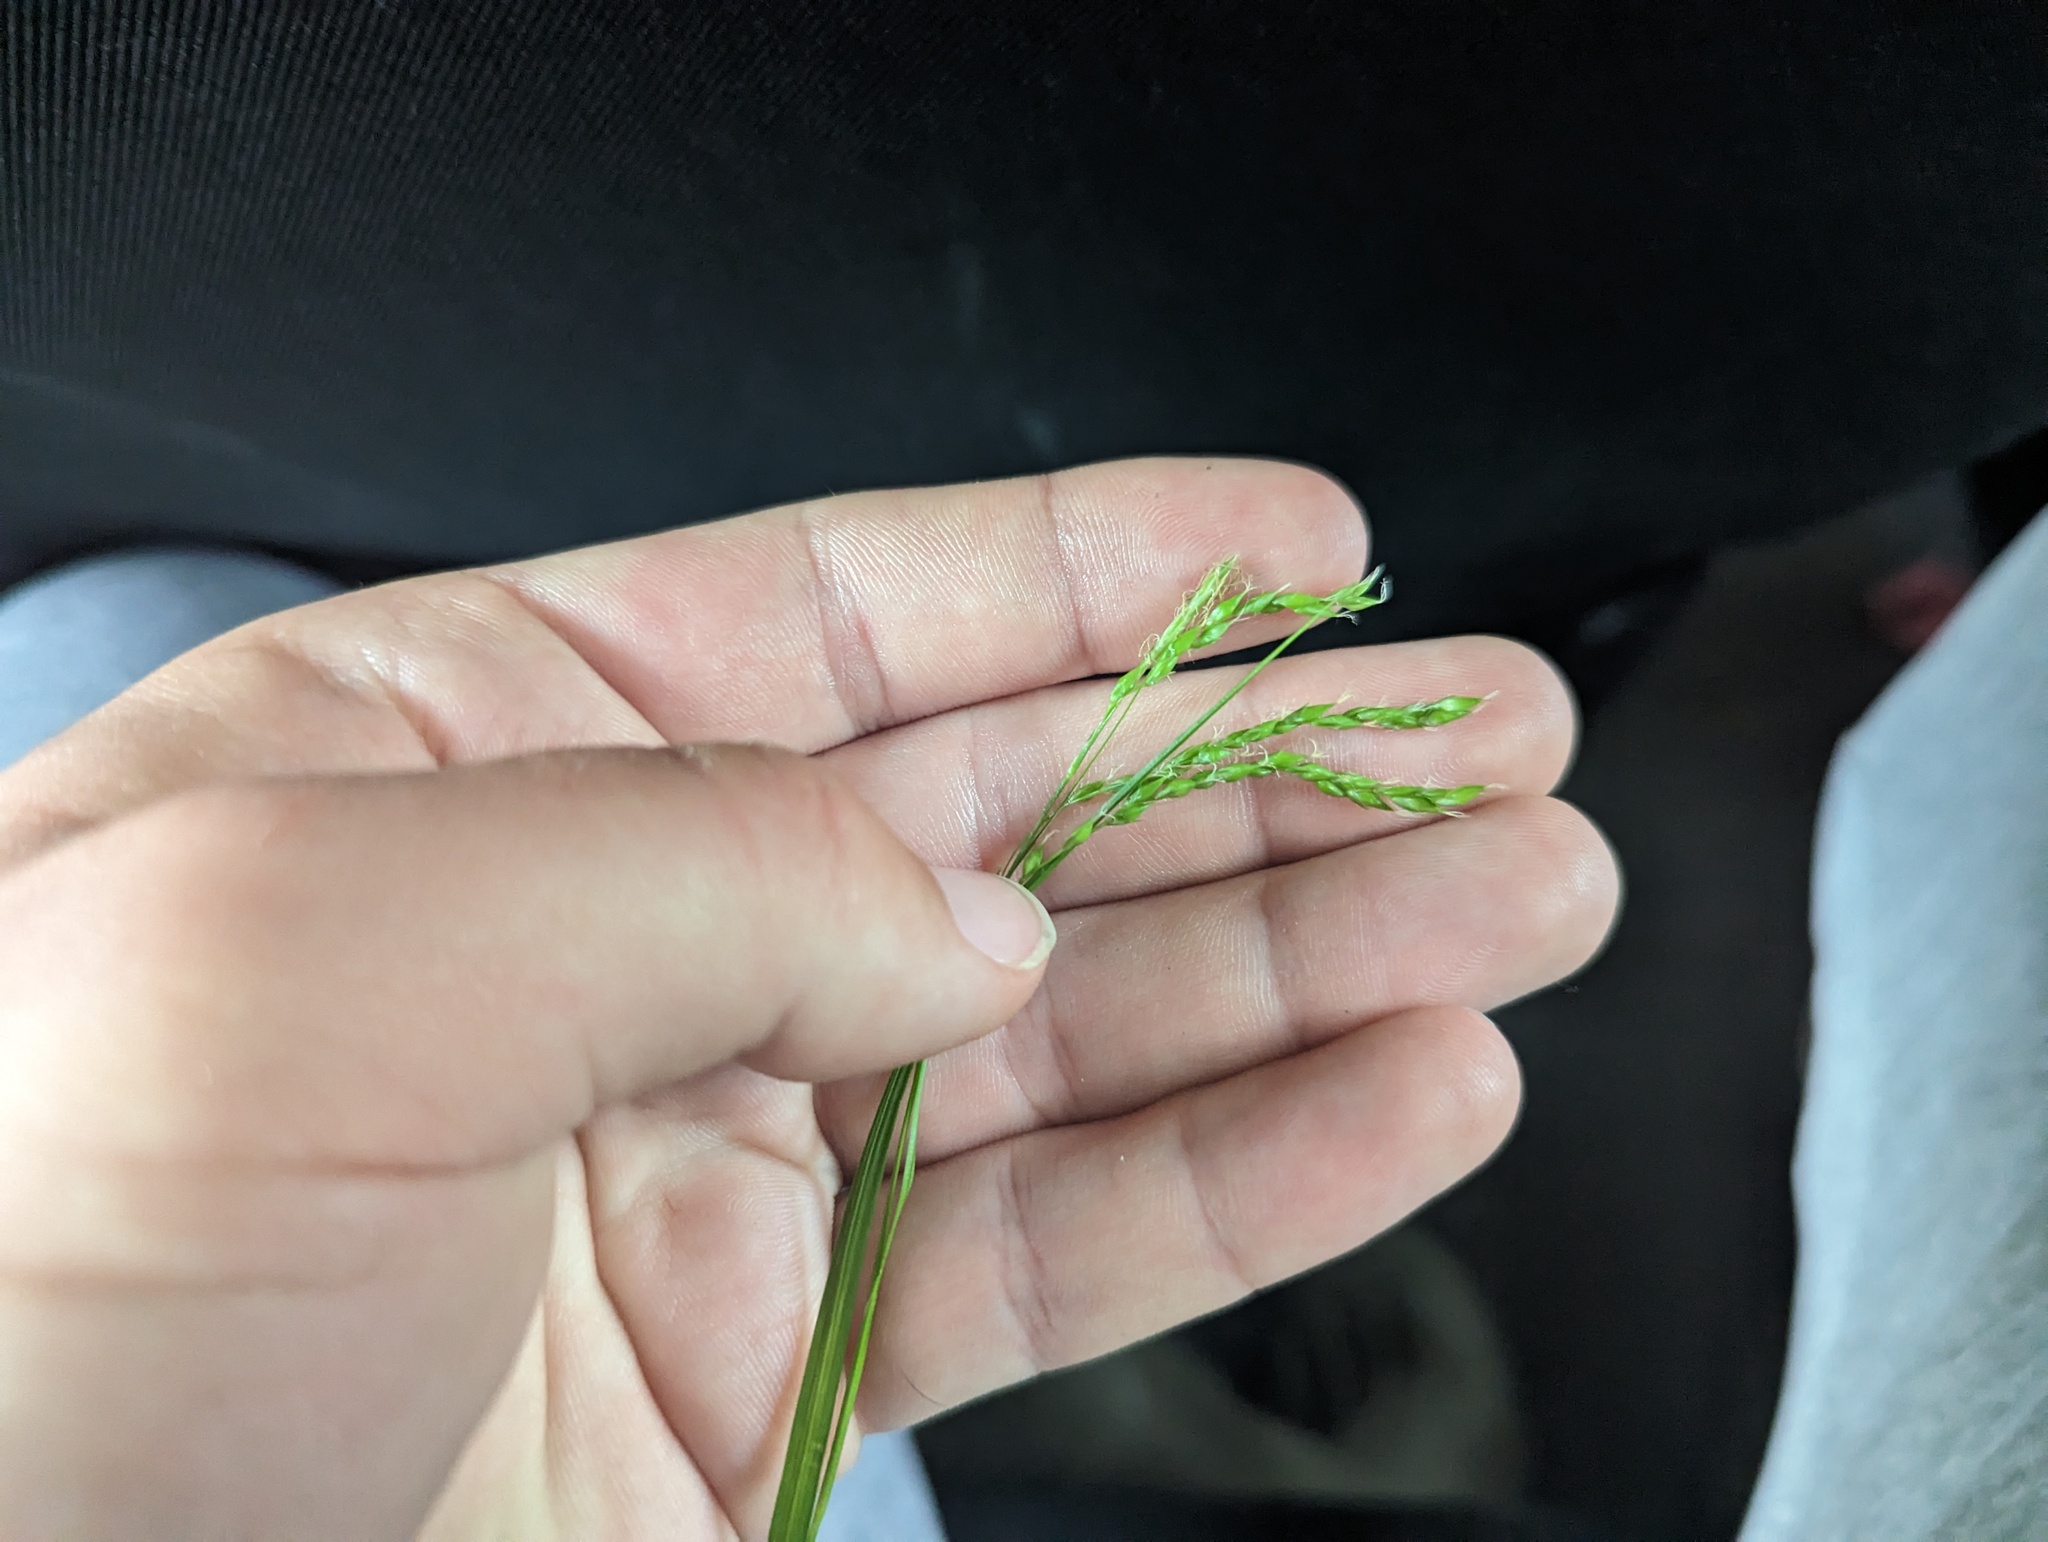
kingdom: Plantae
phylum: Tracheophyta
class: Liliopsida
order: Poales
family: Cyperaceae
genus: Carex
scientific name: Carex arctata
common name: Black sedge
